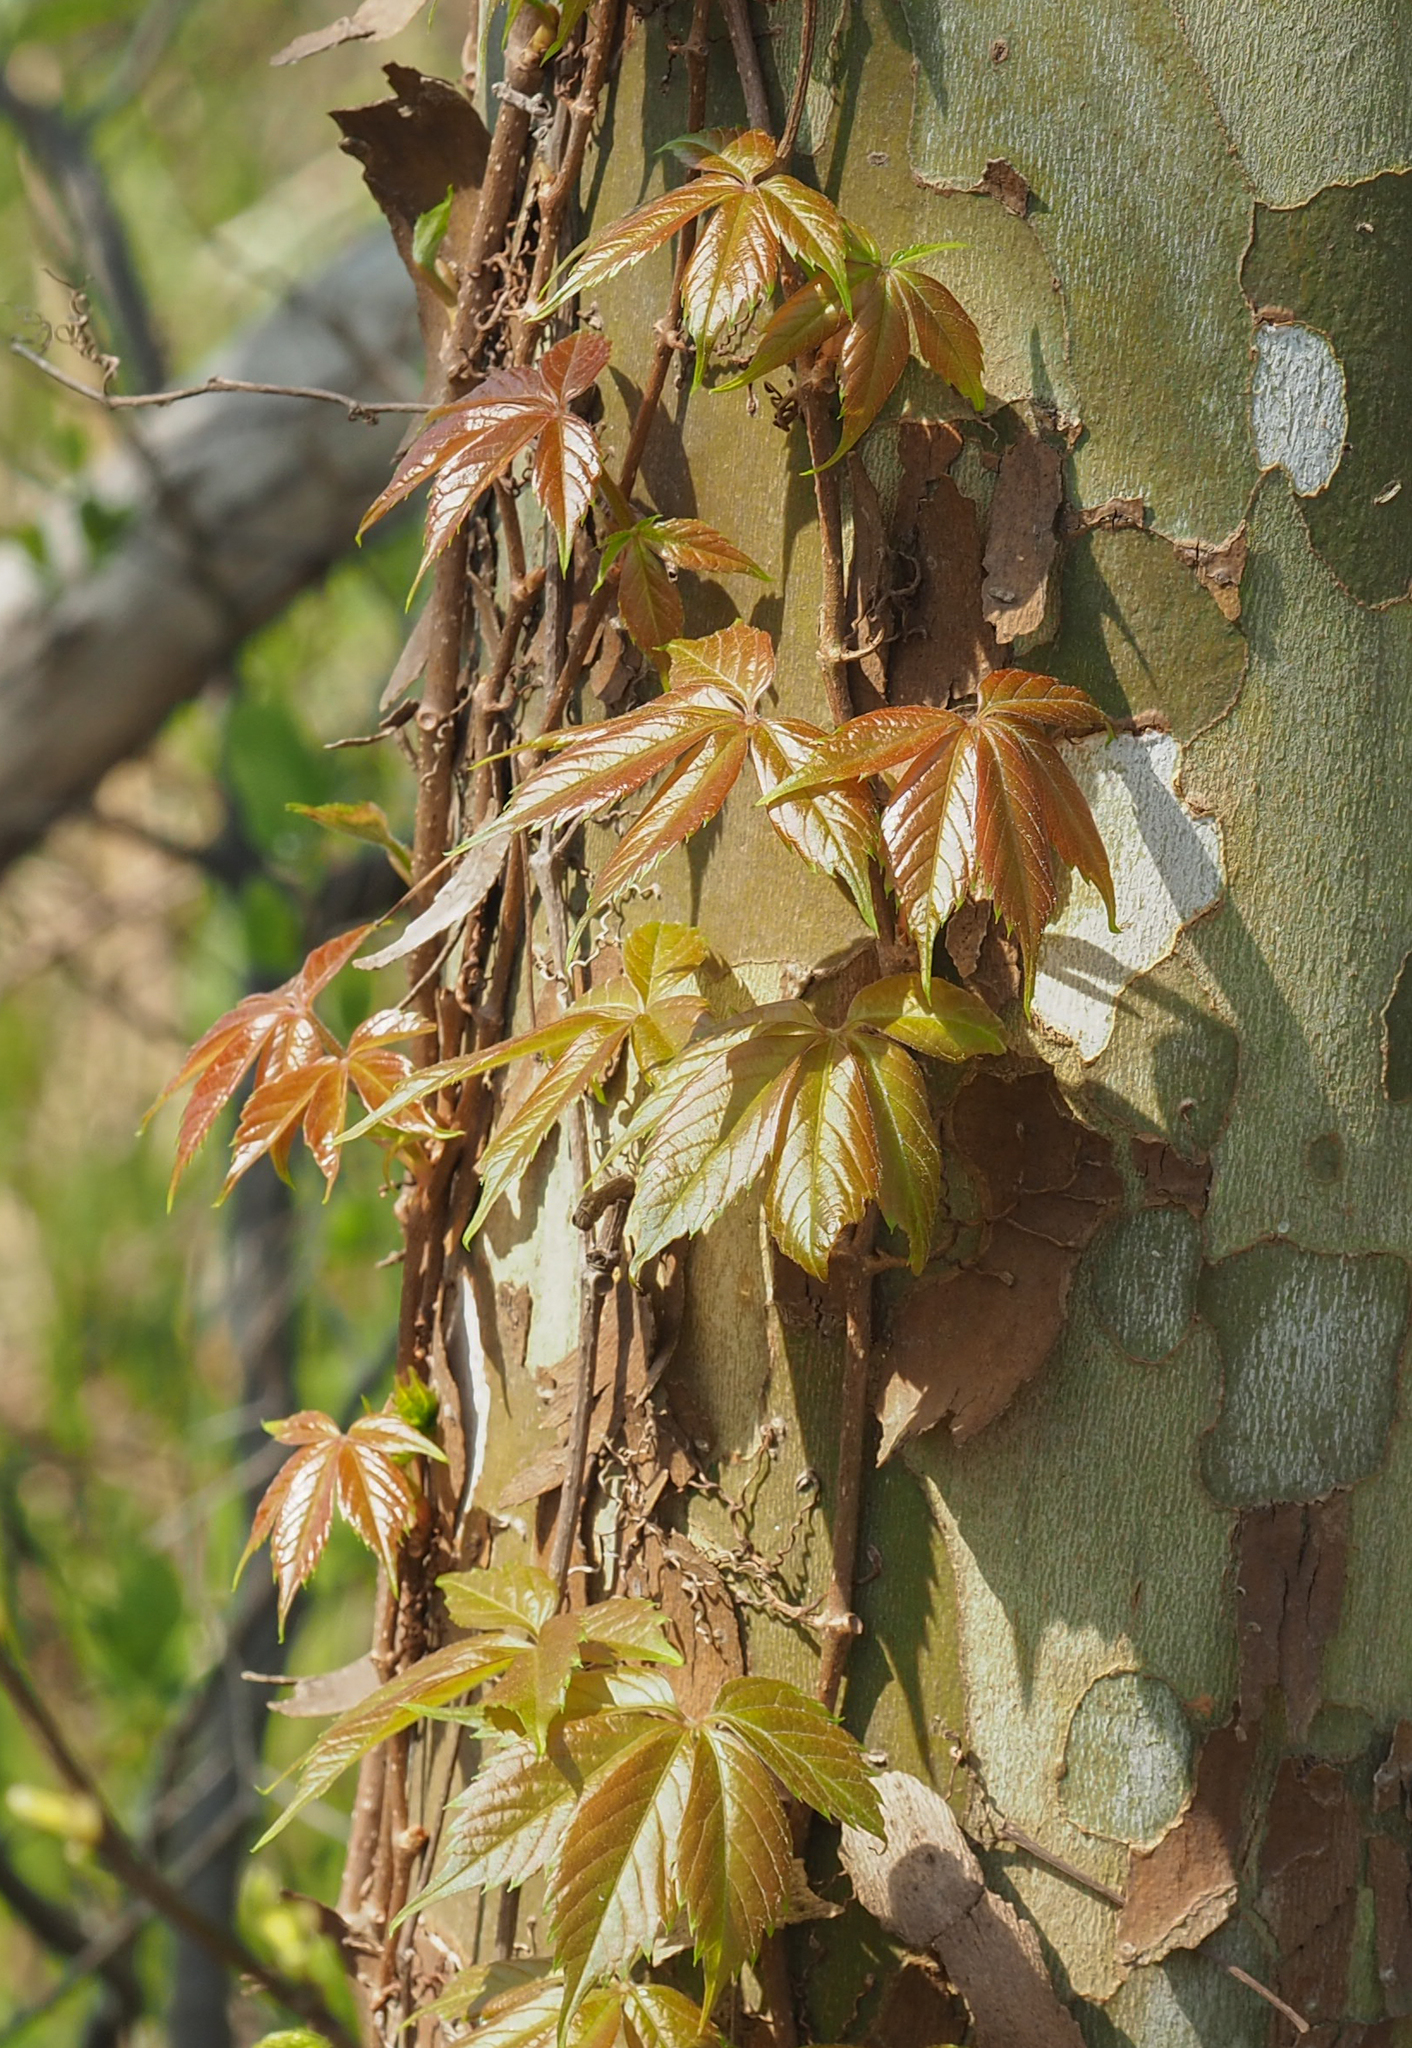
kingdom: Plantae
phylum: Tracheophyta
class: Magnoliopsida
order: Vitales
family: Vitaceae
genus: Parthenocissus
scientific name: Parthenocissus quinquefolia
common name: Virginia-creeper
